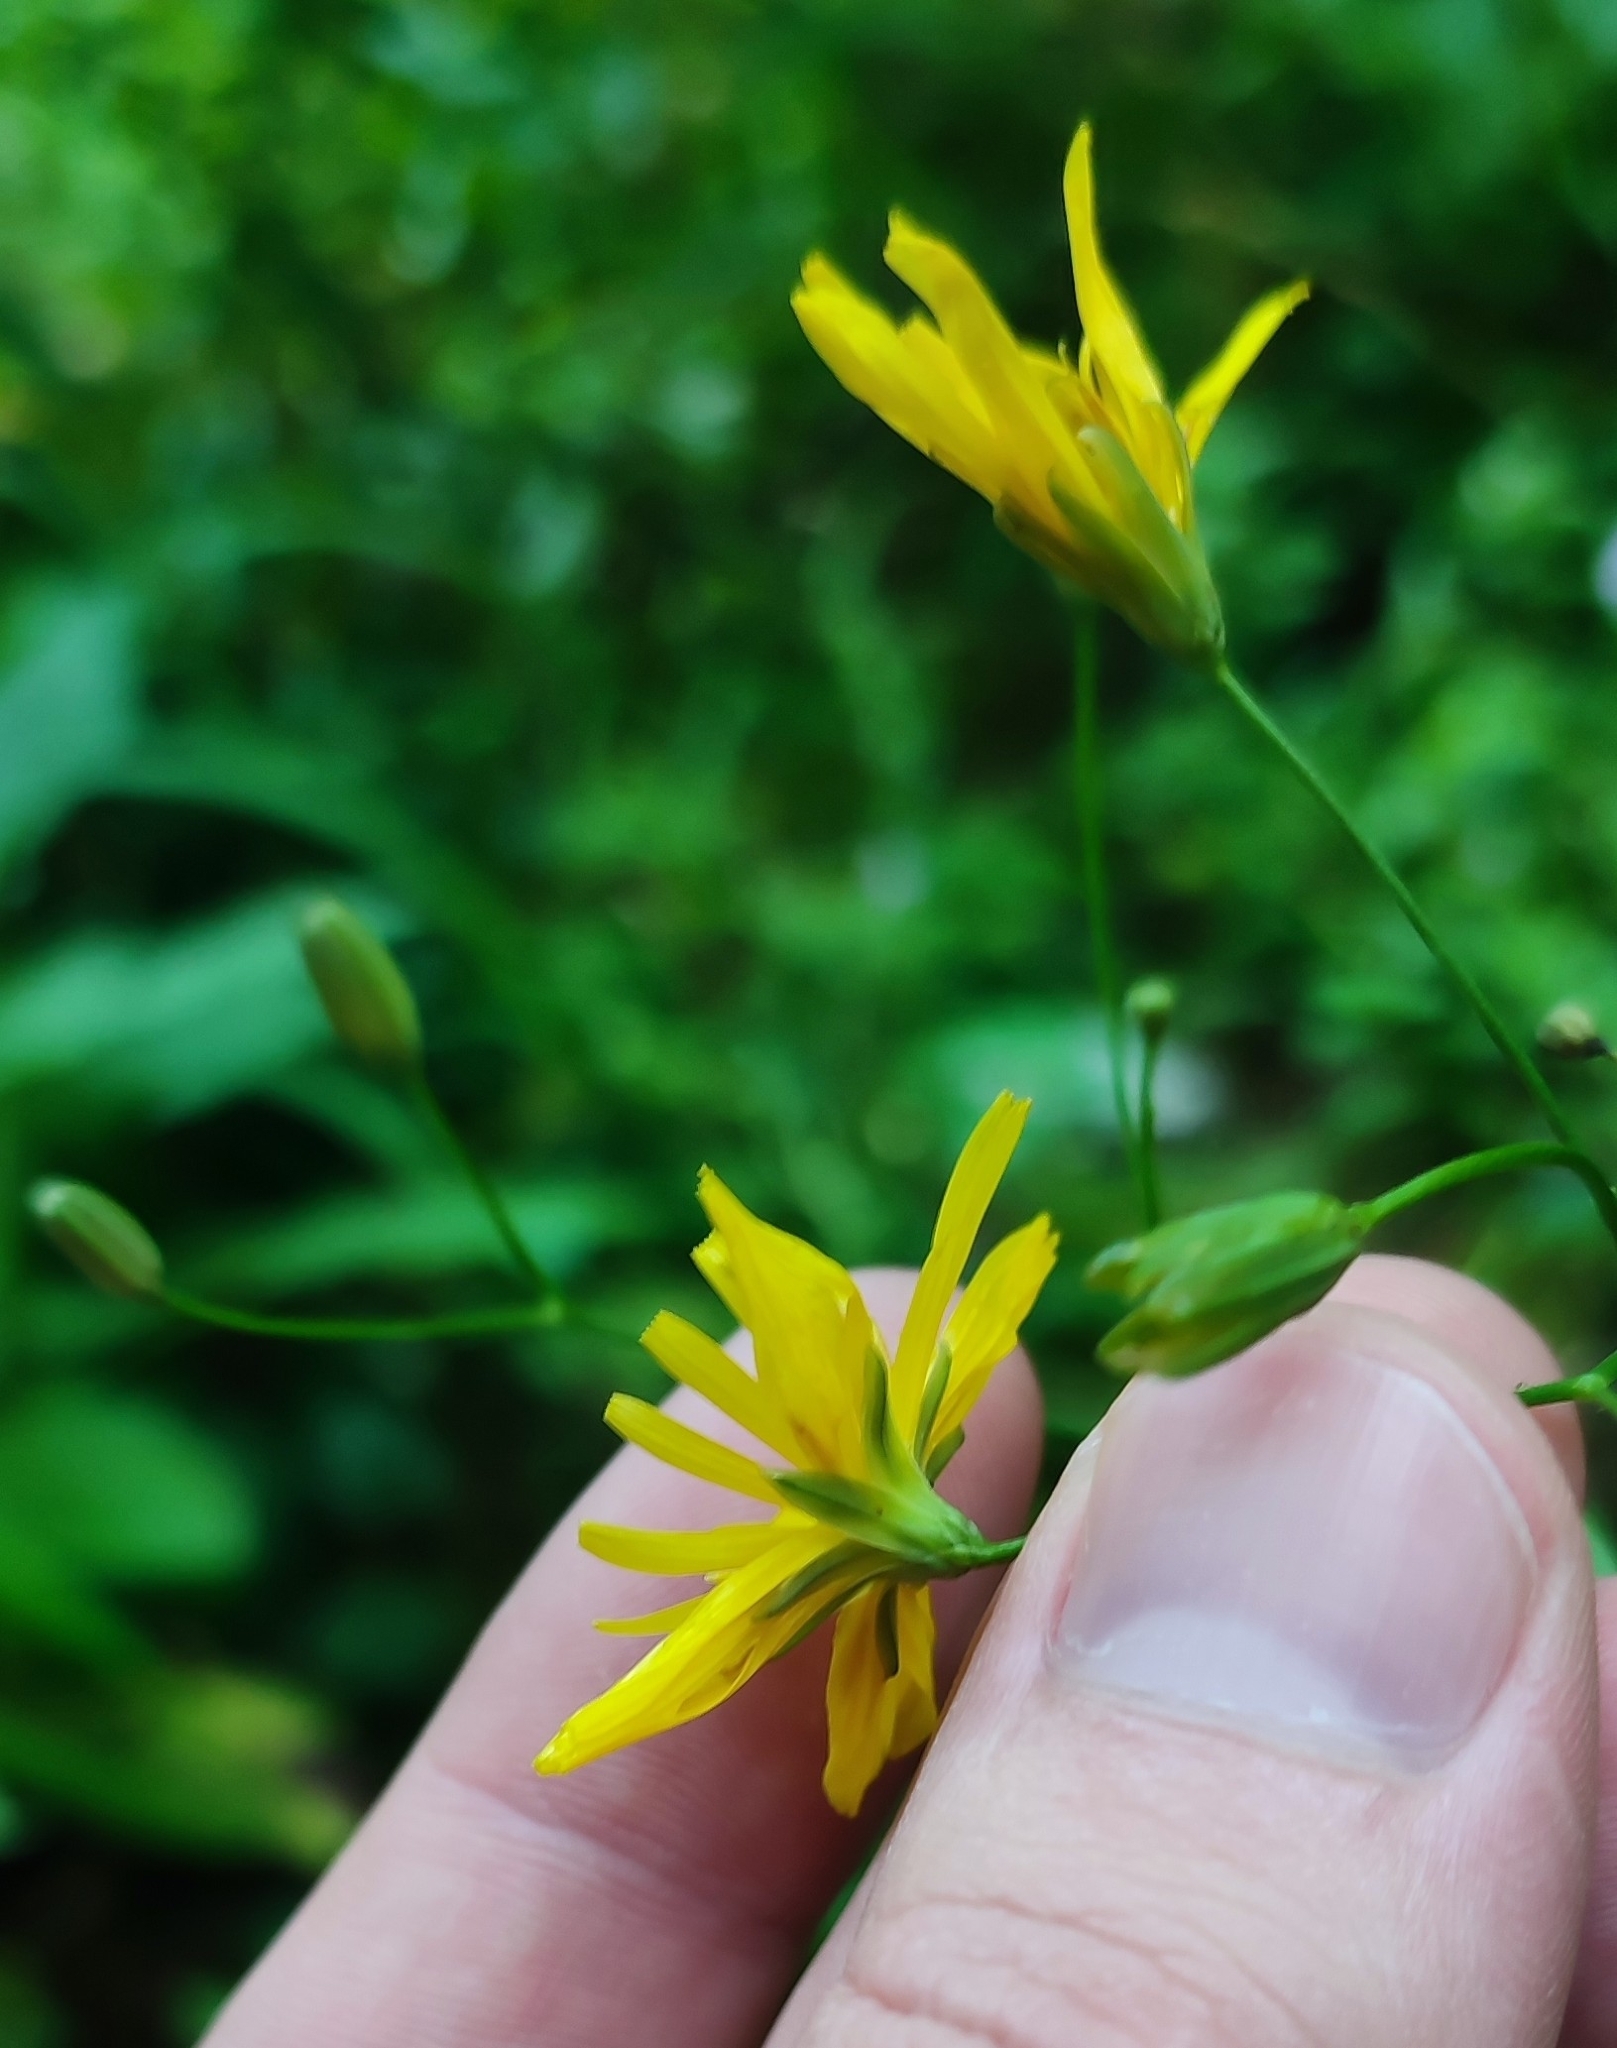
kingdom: Plantae
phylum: Tracheophyta
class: Magnoliopsida
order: Asterales
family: Asteraceae
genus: Lapsana
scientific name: Lapsana communis
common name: Nipplewort
